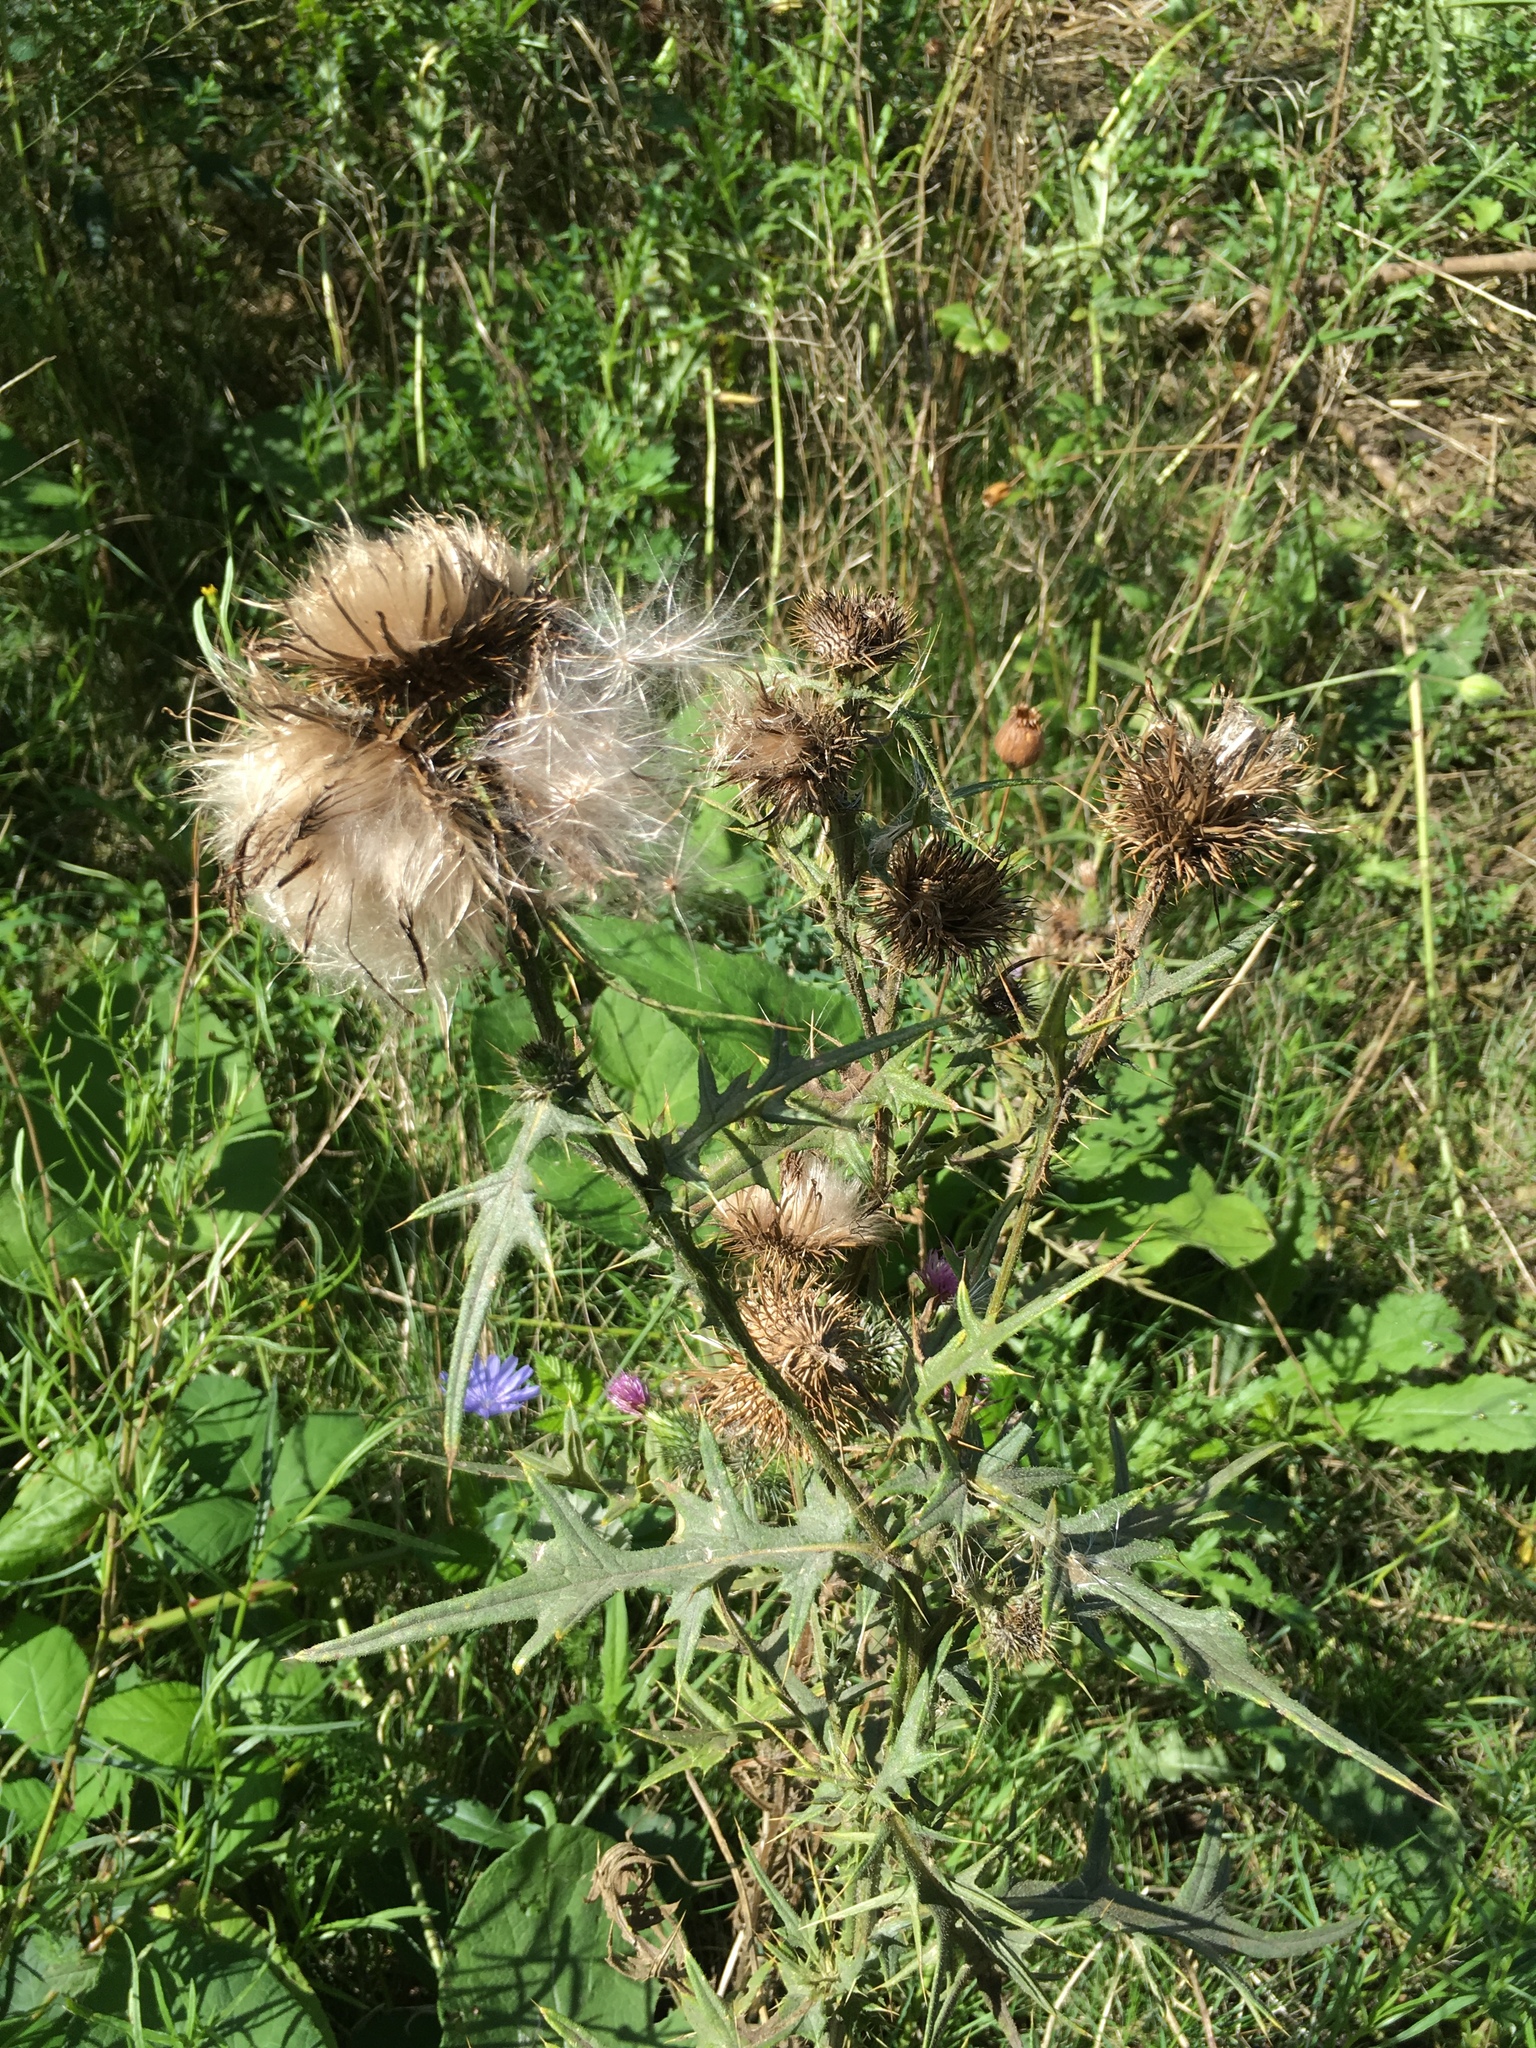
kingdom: Plantae
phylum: Tracheophyta
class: Magnoliopsida
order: Asterales
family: Asteraceae
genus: Cirsium
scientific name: Cirsium vulgare
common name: Bull thistle
